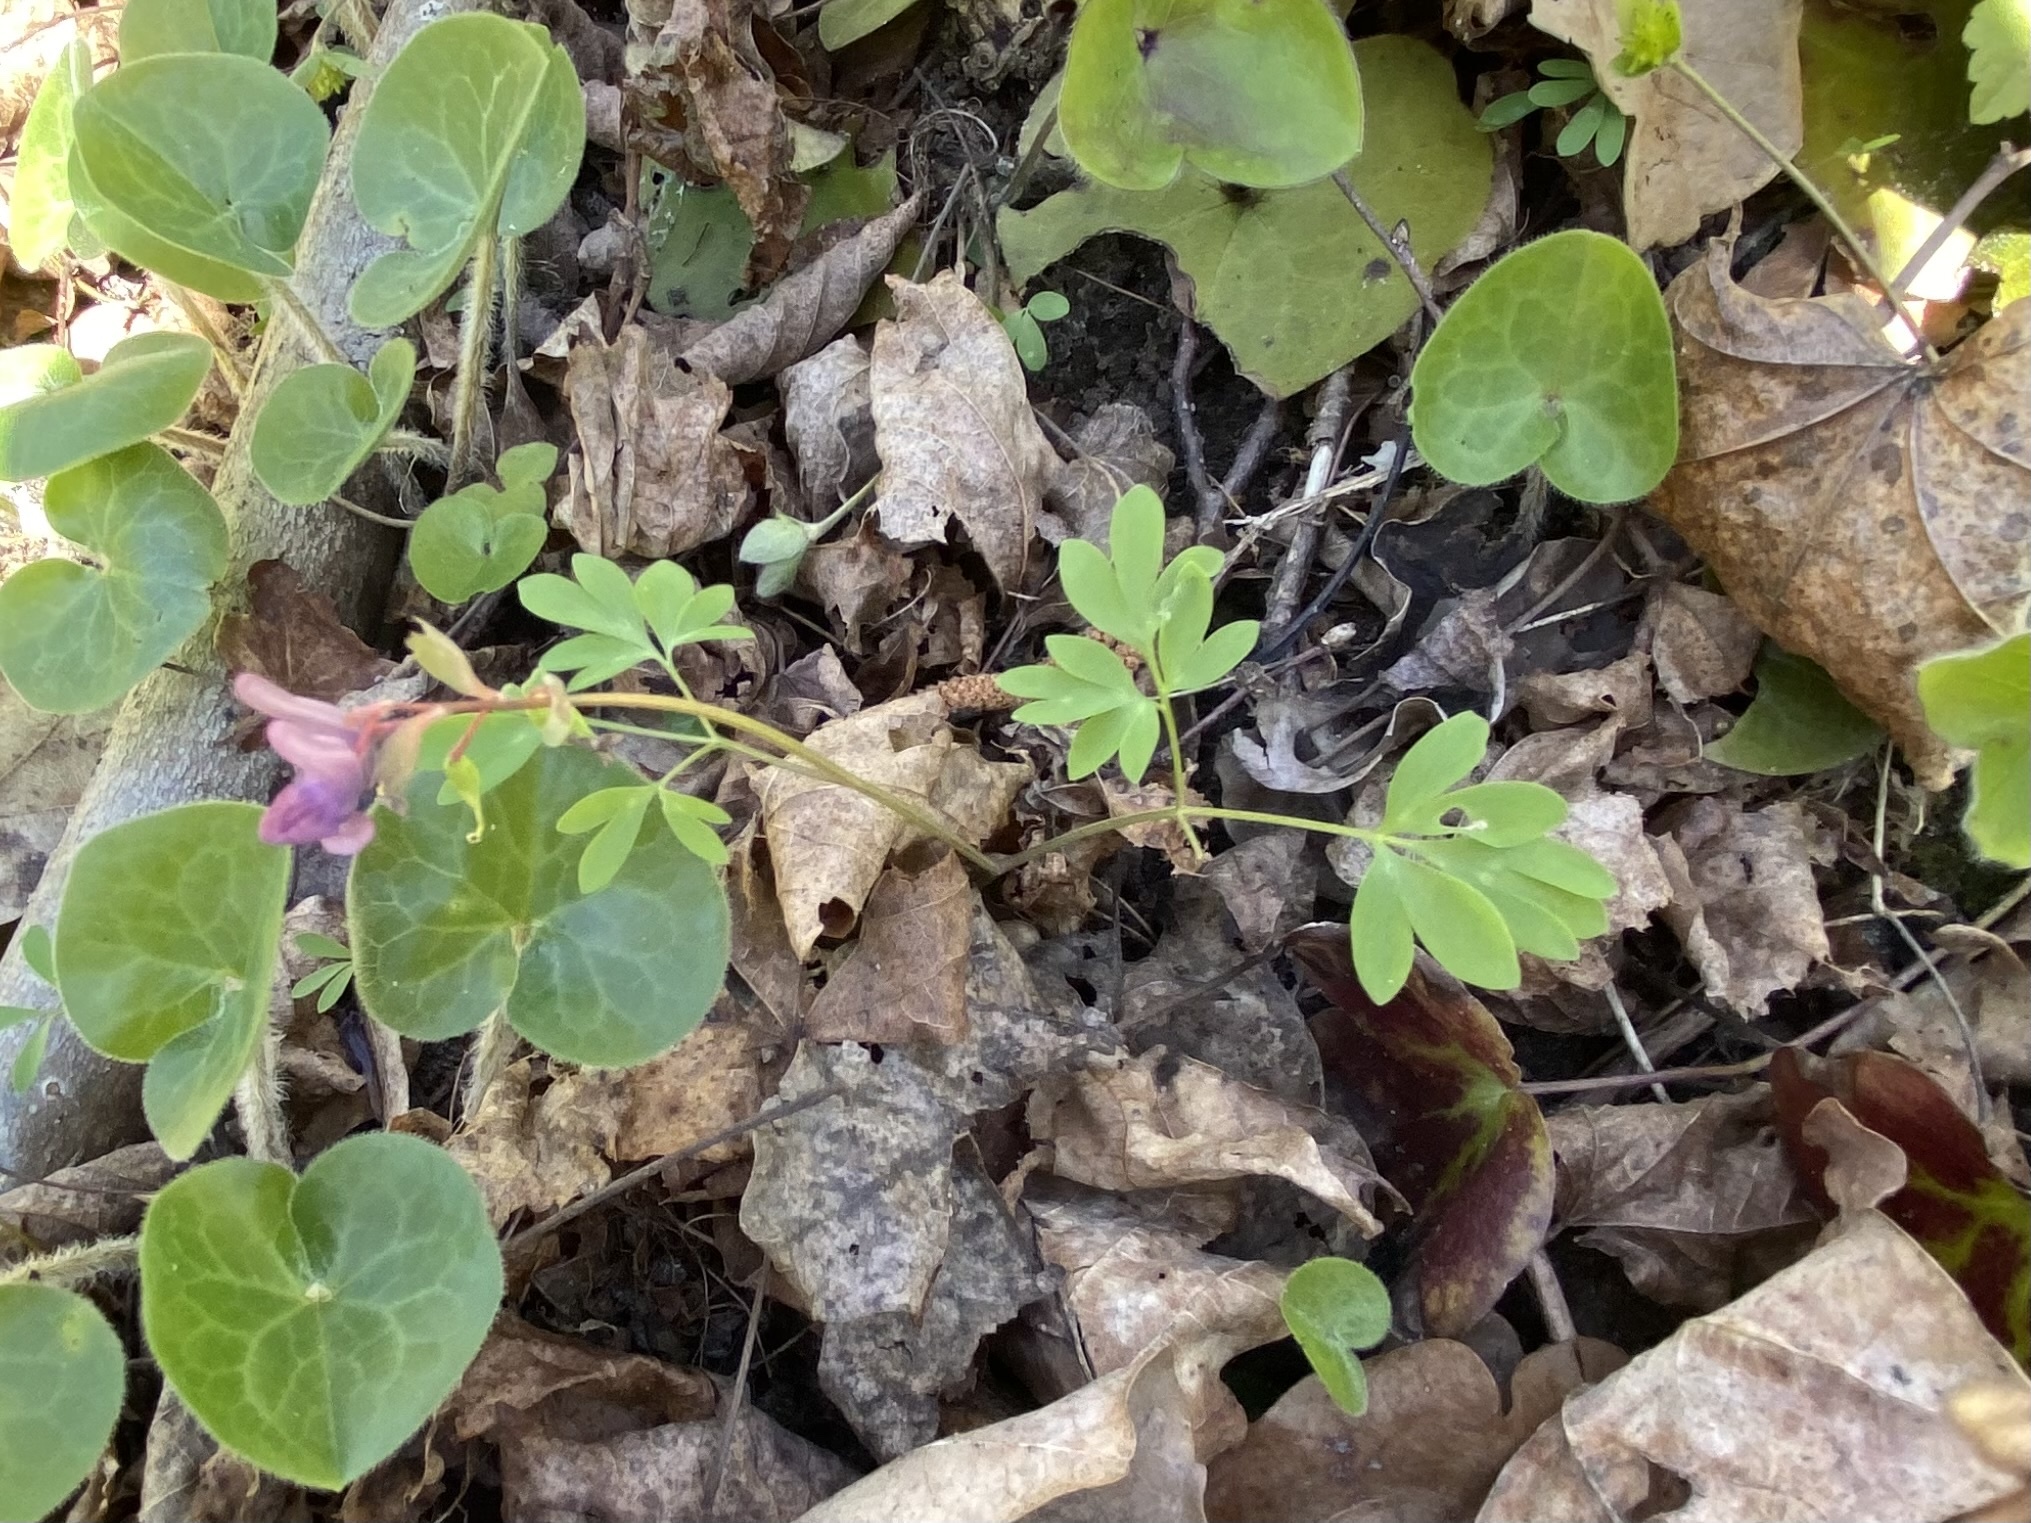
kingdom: Plantae
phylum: Tracheophyta
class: Magnoliopsida
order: Ranunculales
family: Papaveraceae
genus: Corydalis
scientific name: Corydalis solida
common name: Bird-in-a-bush
